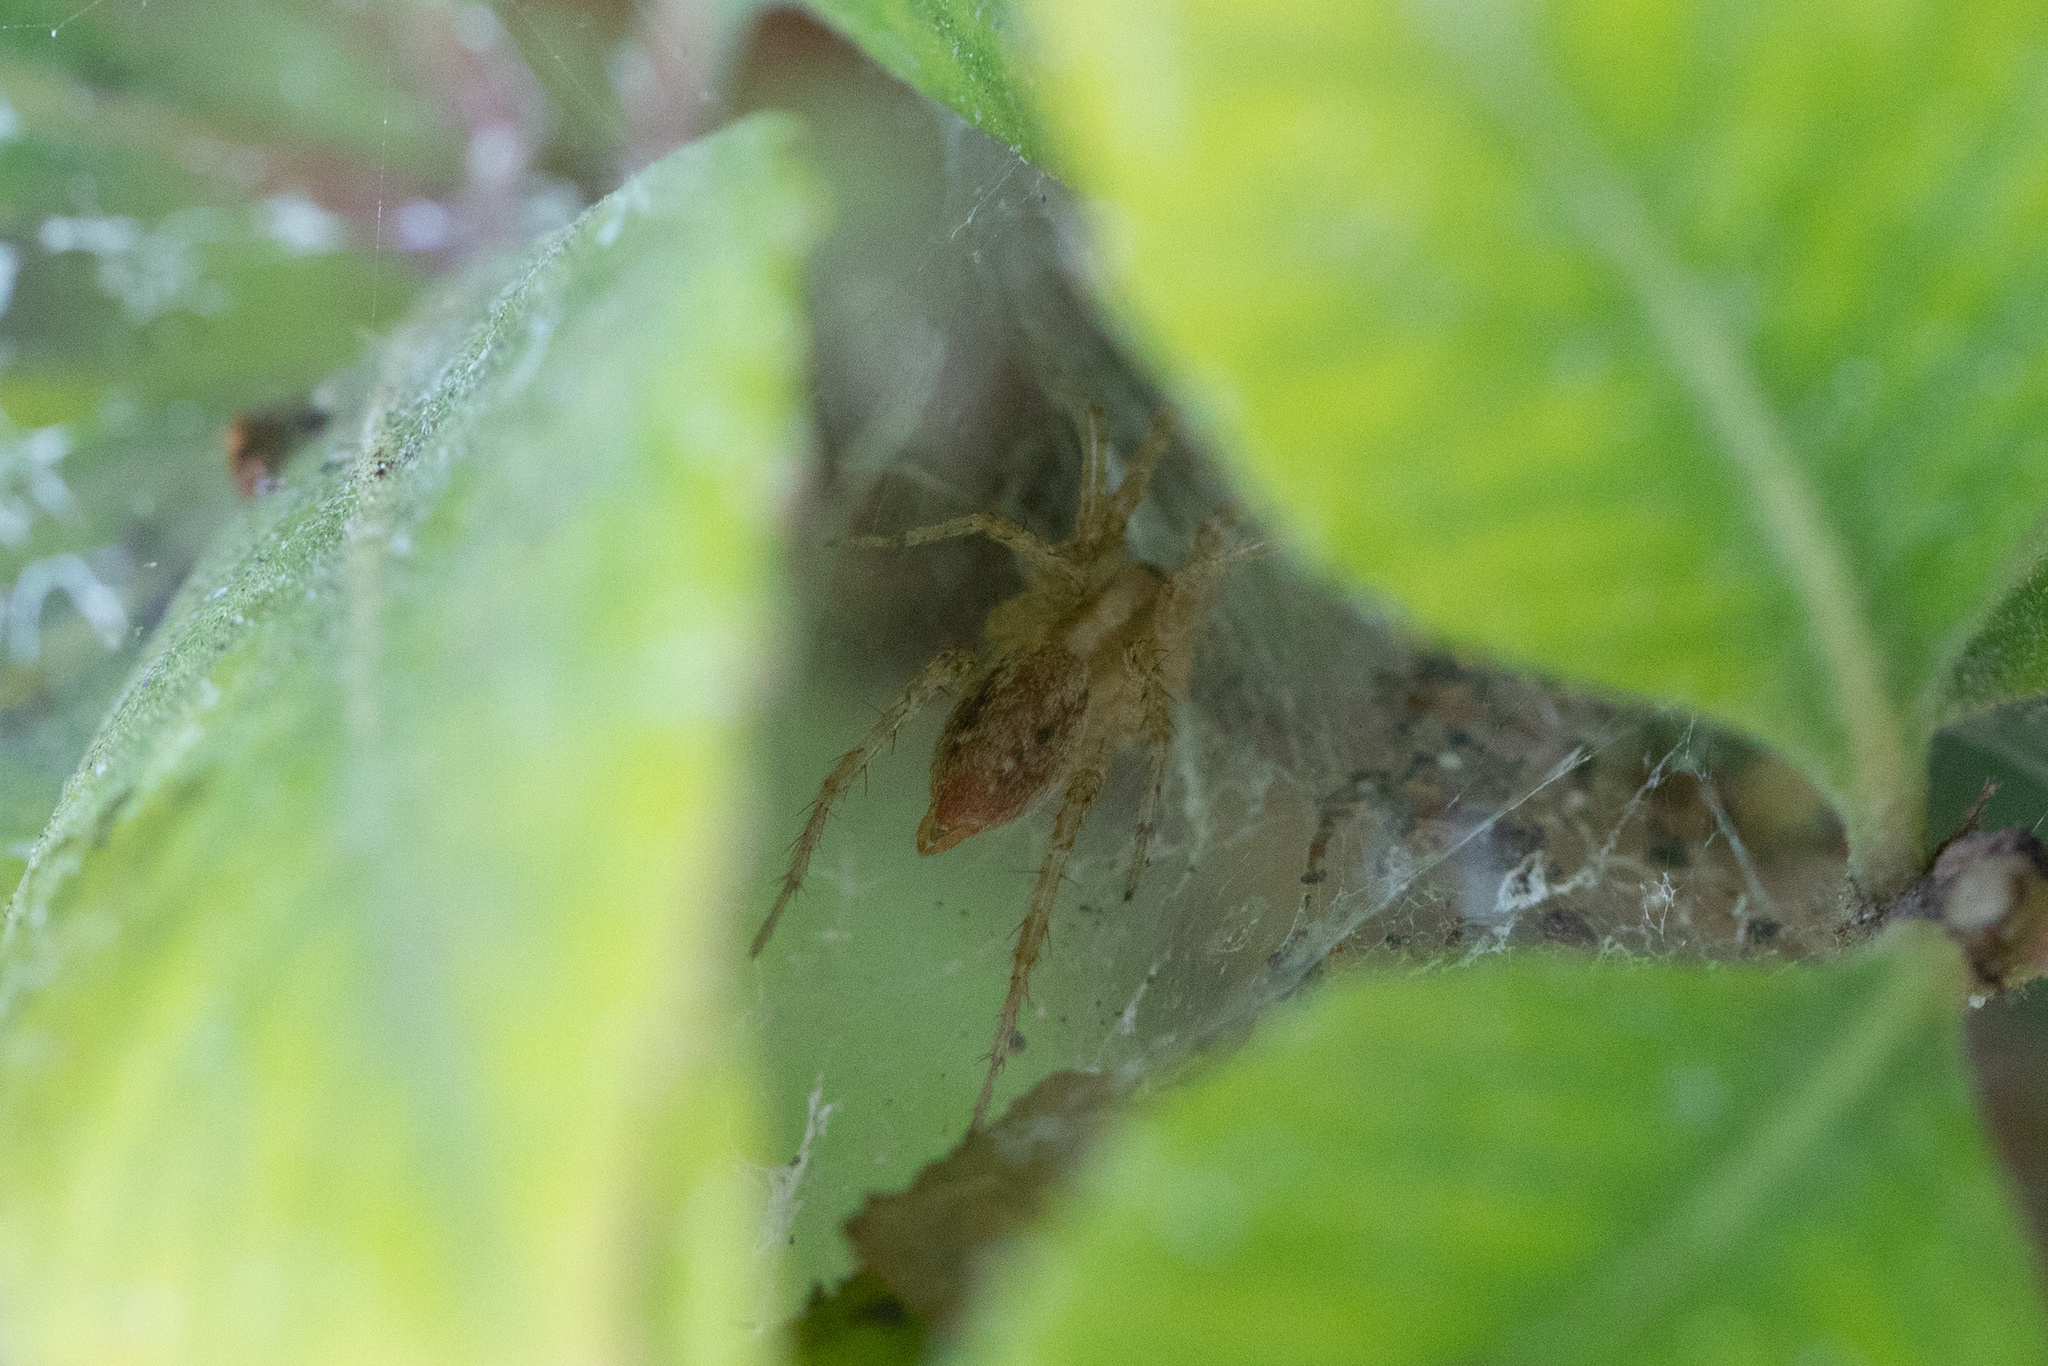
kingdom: Animalia
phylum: Arthropoda
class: Arachnida
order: Araneae
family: Agelenidae
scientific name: Agelenidae
